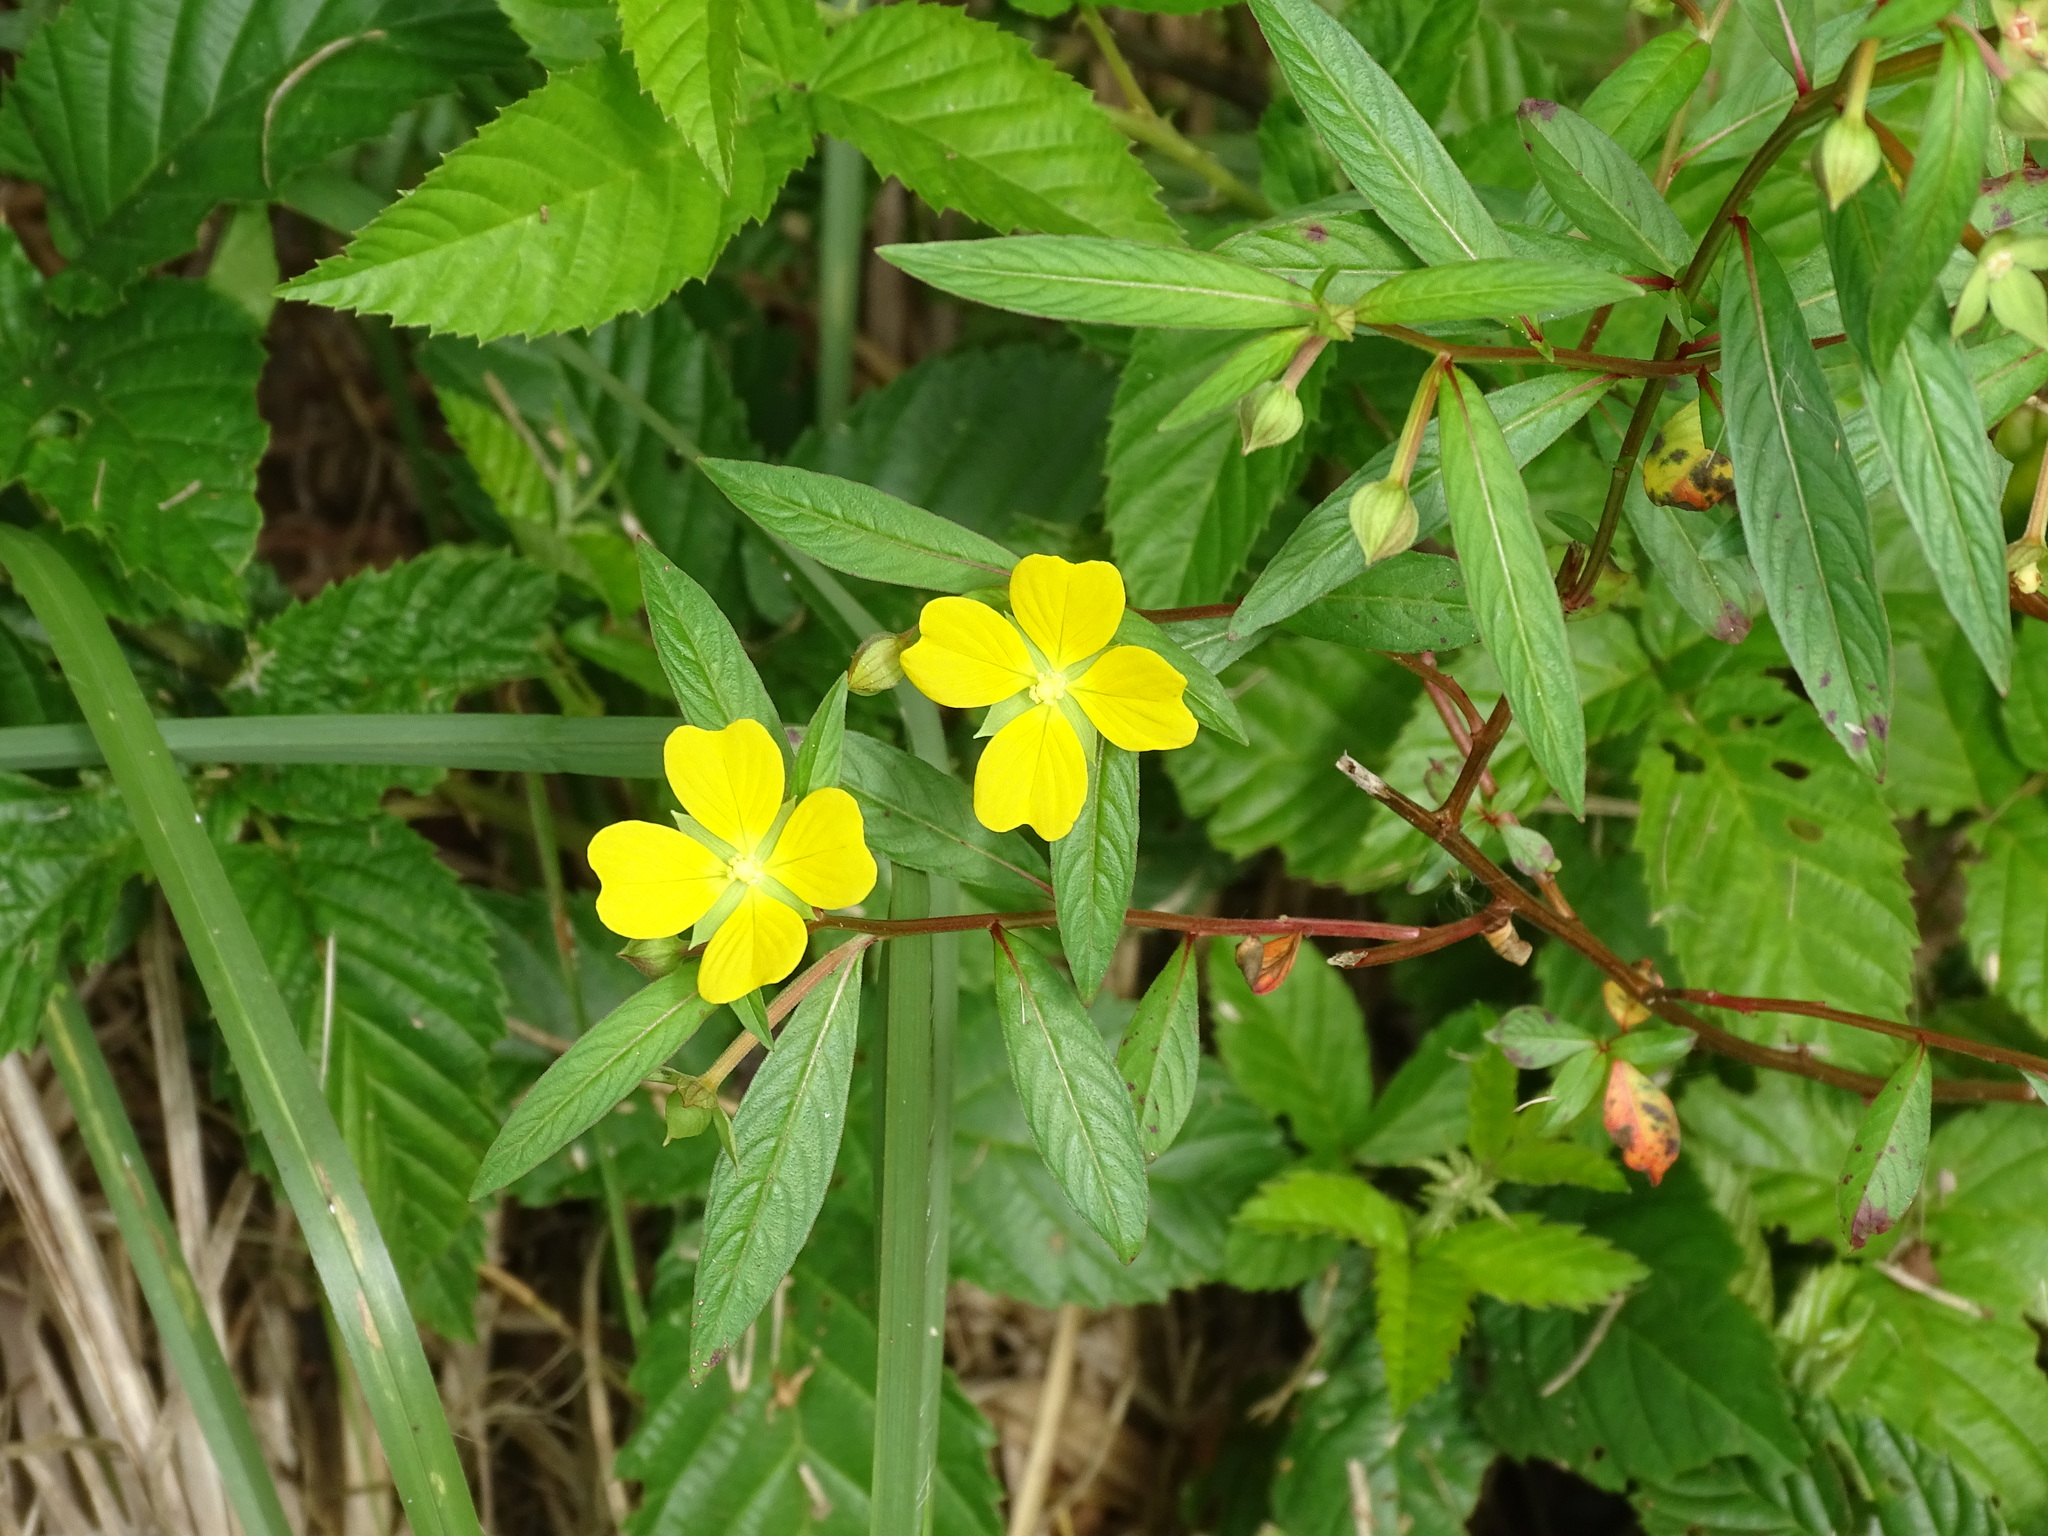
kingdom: Plantae
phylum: Tracheophyta
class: Magnoliopsida
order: Myrtales
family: Onagraceae
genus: Ludwigia
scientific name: Ludwigia octovalvis
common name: Water-primrose
